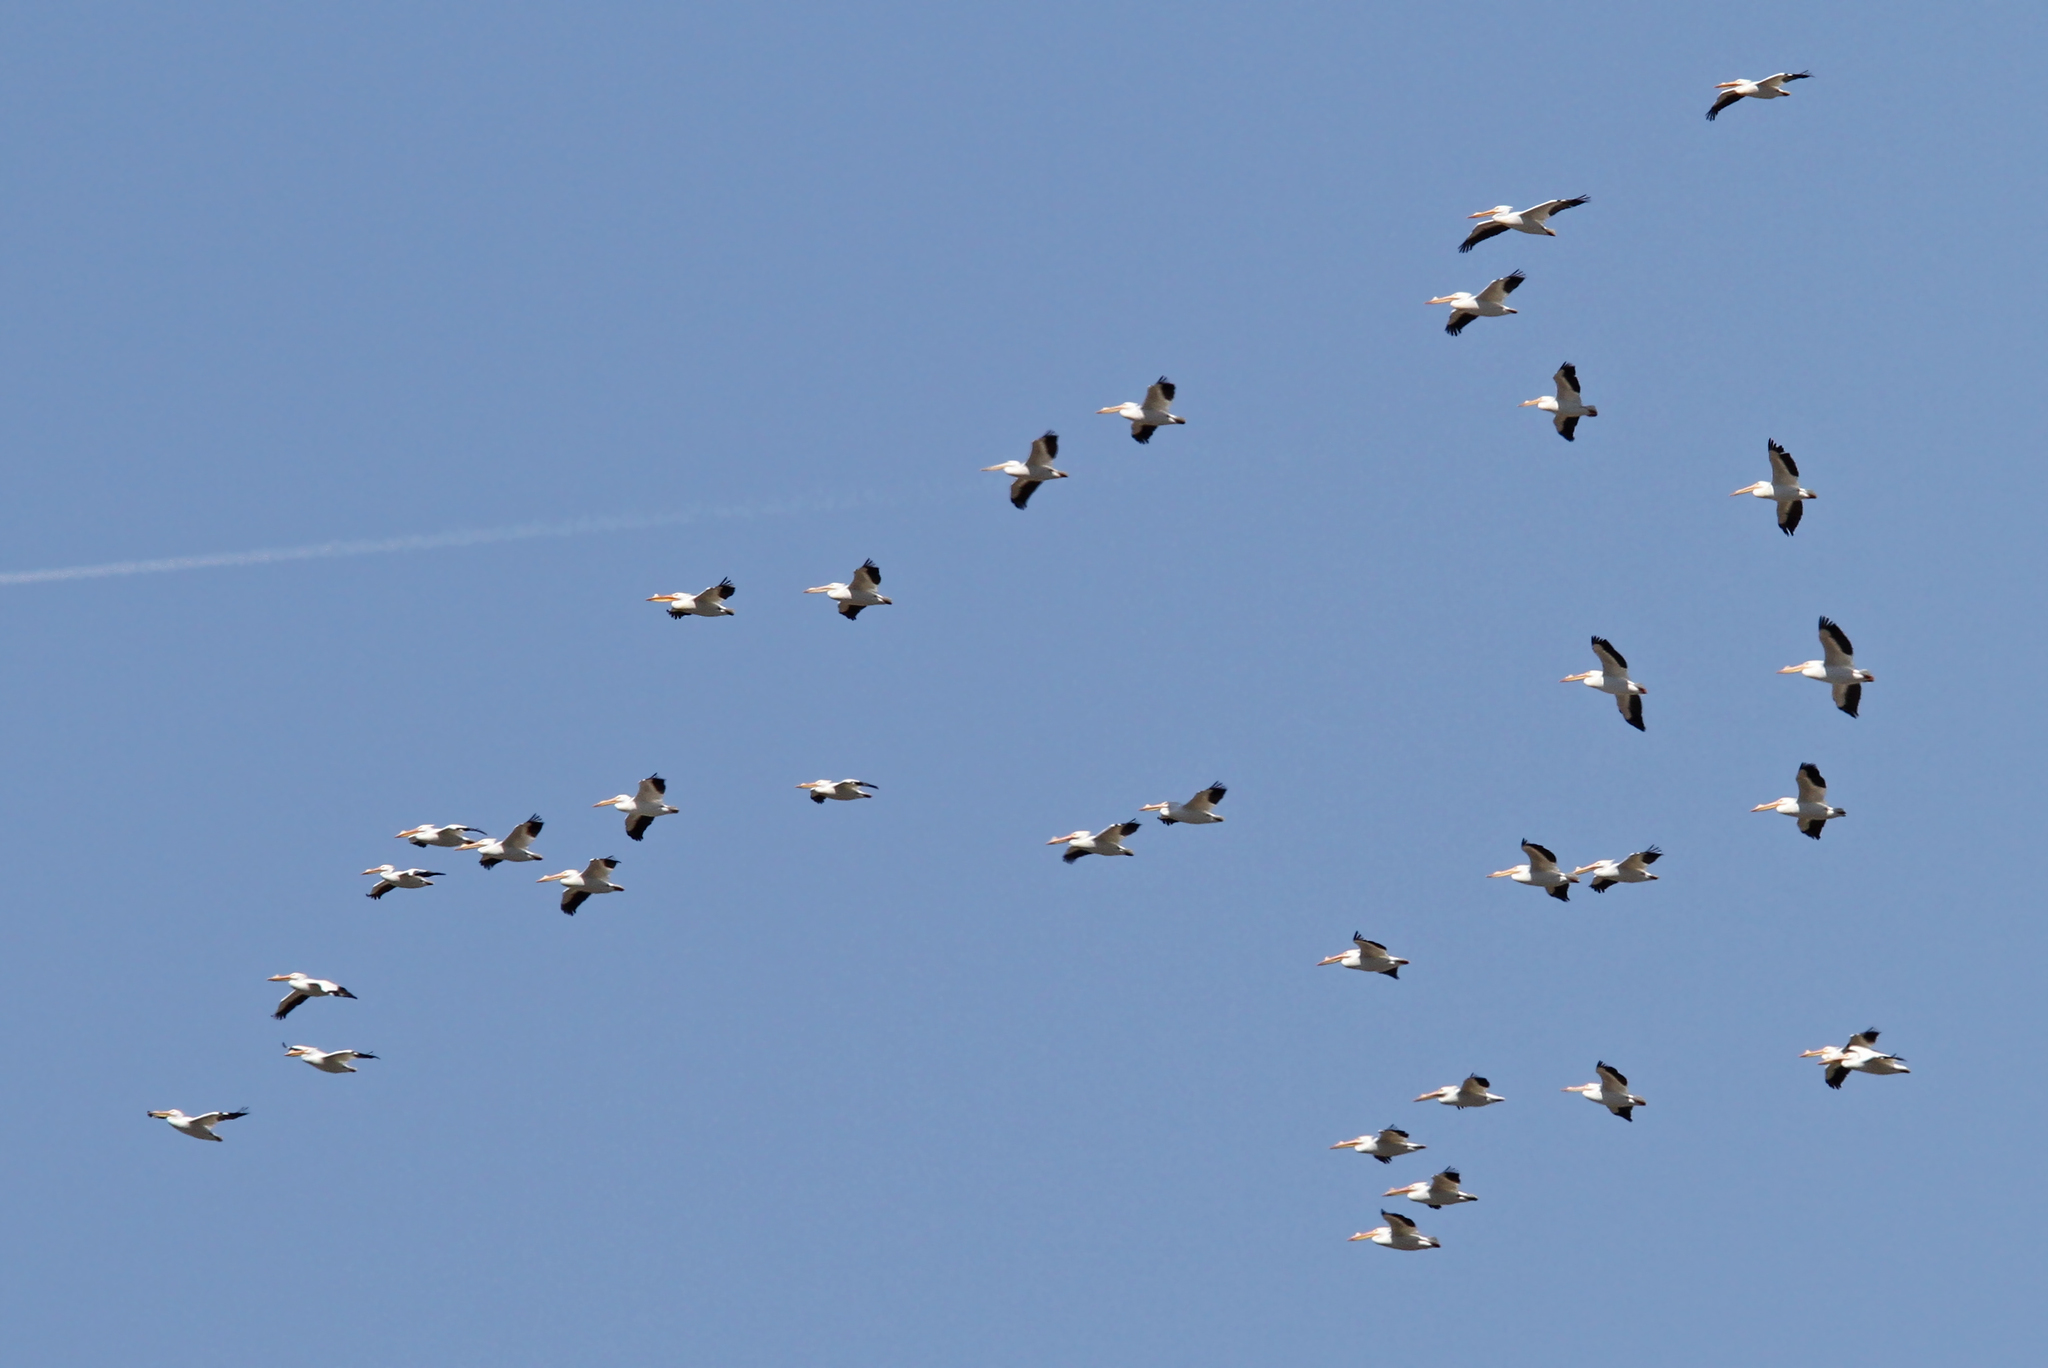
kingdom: Animalia
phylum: Chordata
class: Aves
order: Pelecaniformes
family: Pelecanidae
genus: Pelecanus
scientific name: Pelecanus erythrorhynchos
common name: American white pelican
